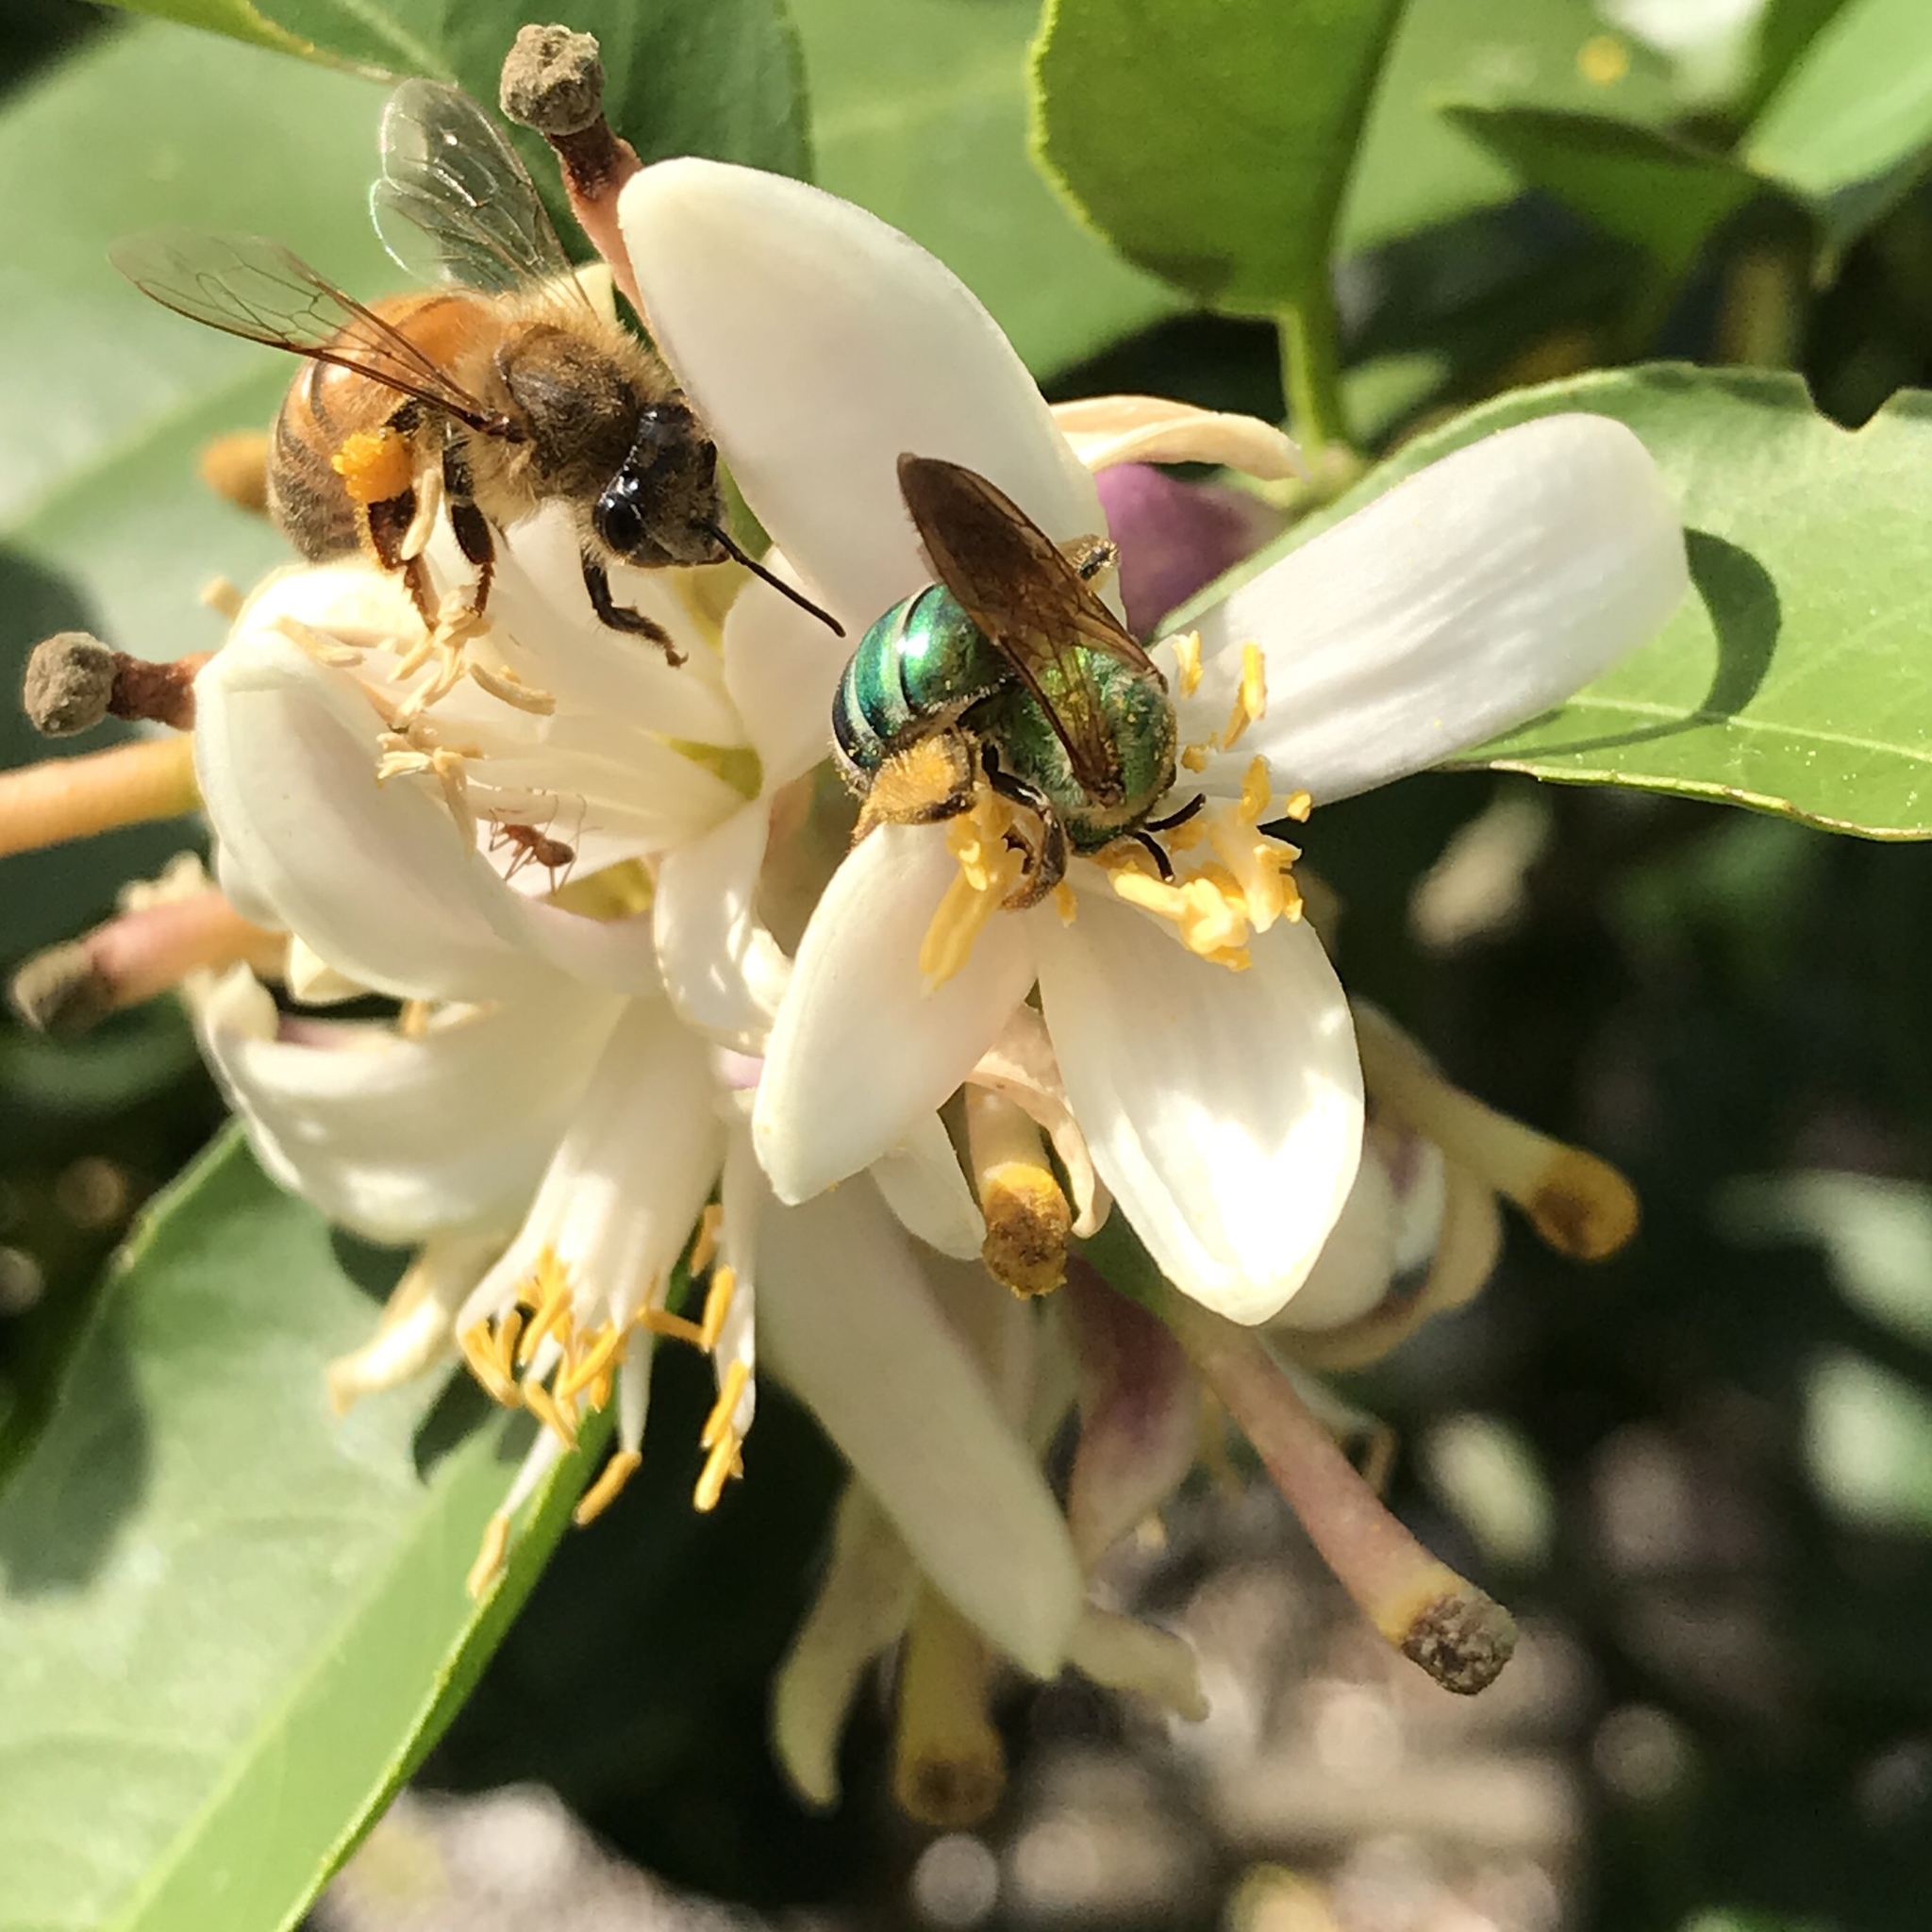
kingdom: Animalia
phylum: Arthropoda
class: Insecta
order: Hymenoptera
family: Halictidae
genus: Agapostemon
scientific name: Agapostemon splendens
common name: Brown-winged striped sweat bee
